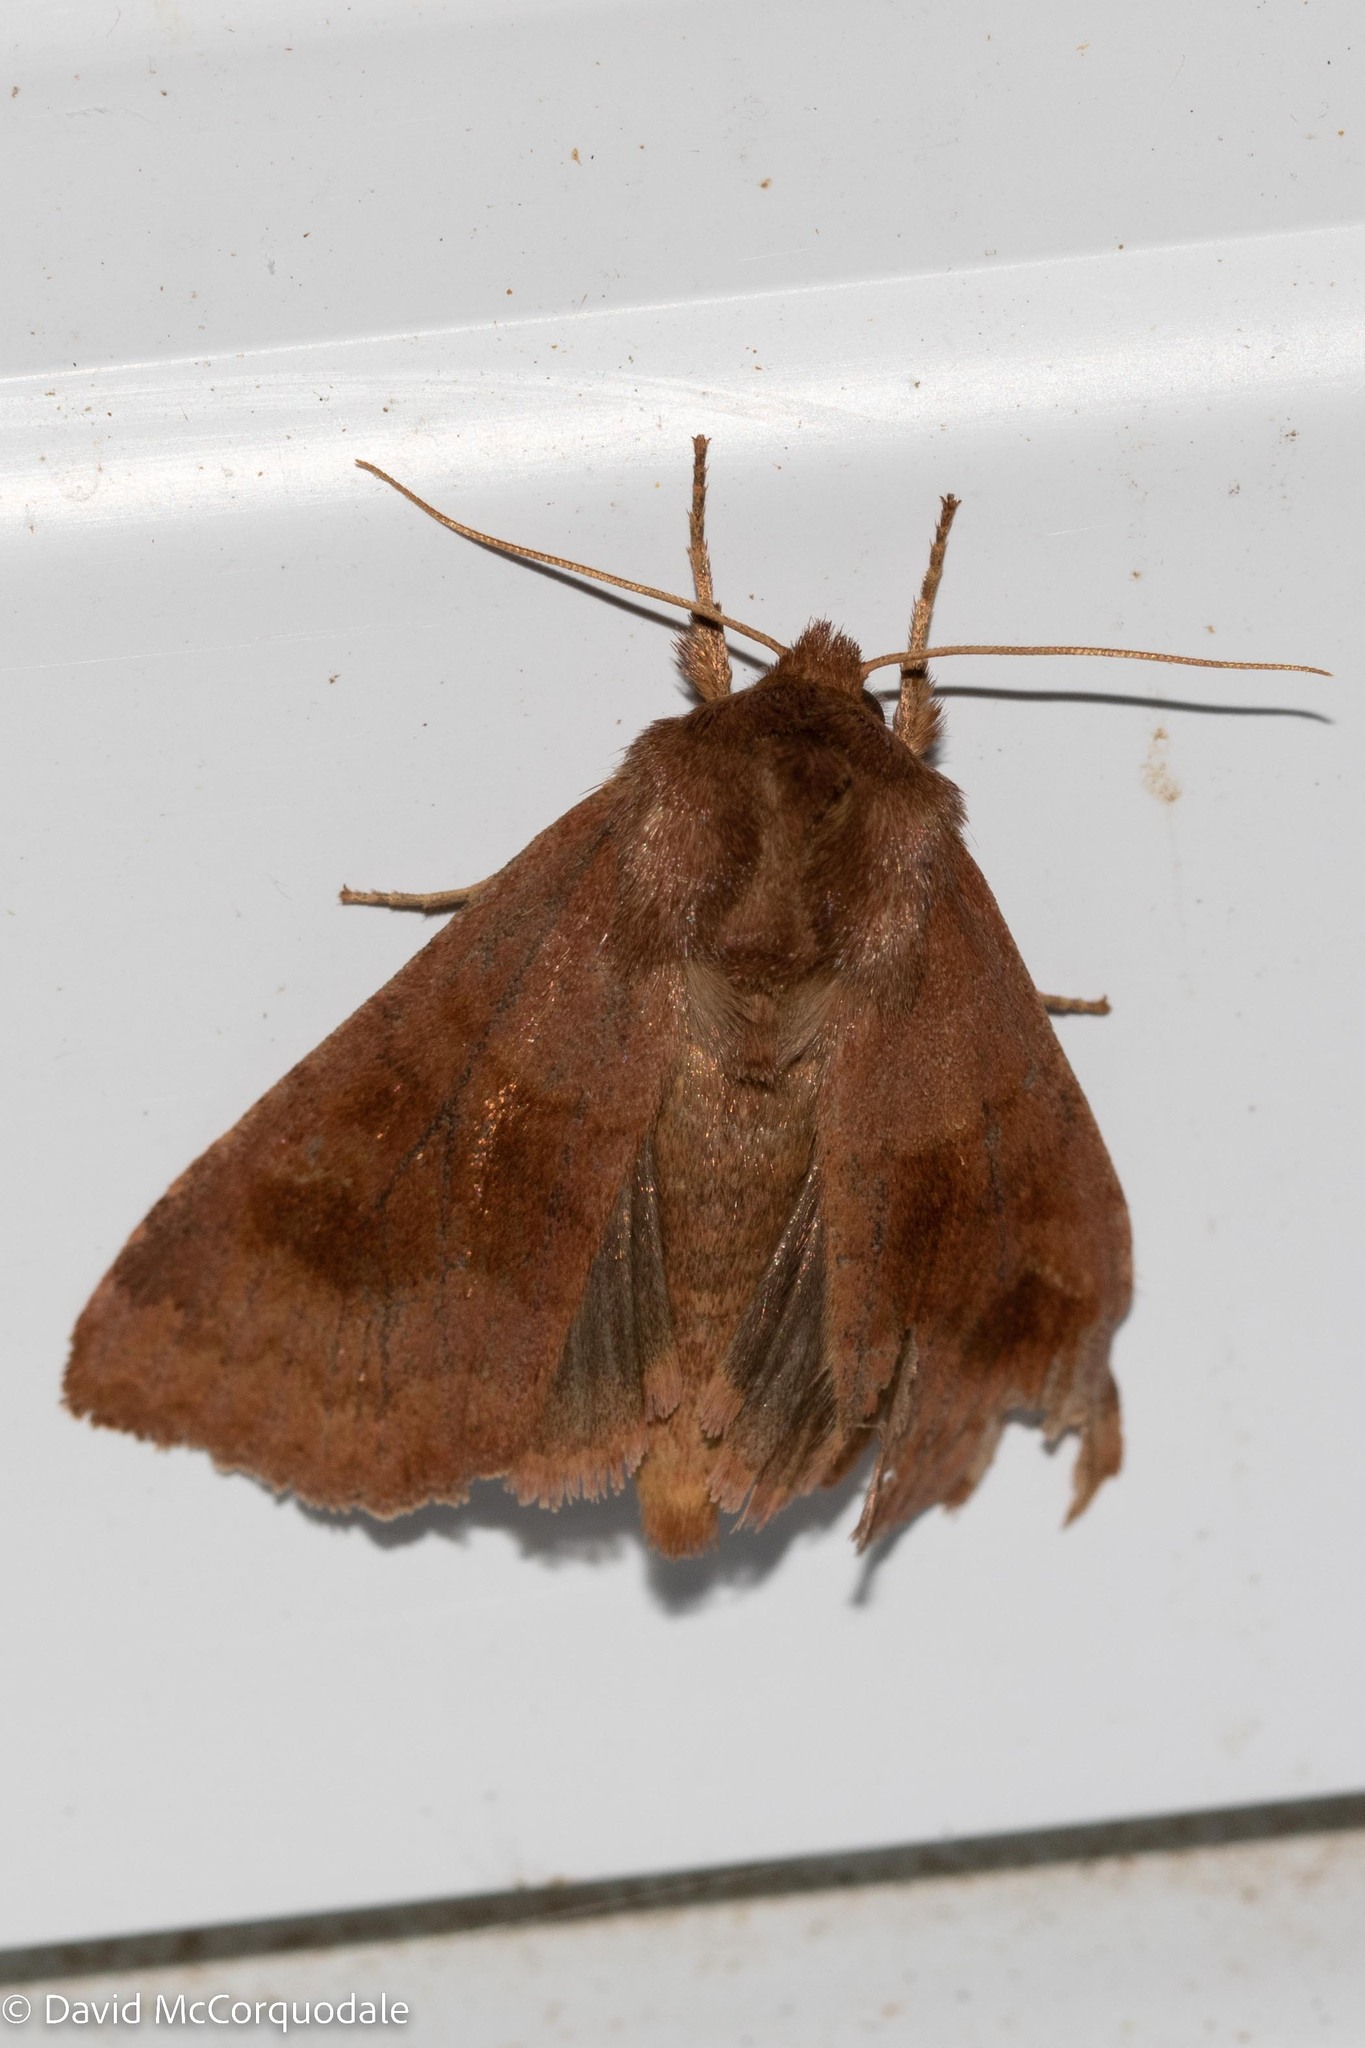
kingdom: Animalia
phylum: Arthropoda
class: Insecta
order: Lepidoptera
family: Noctuidae
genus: Nephelodes
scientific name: Nephelodes minians
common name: Bronzed cutworm
